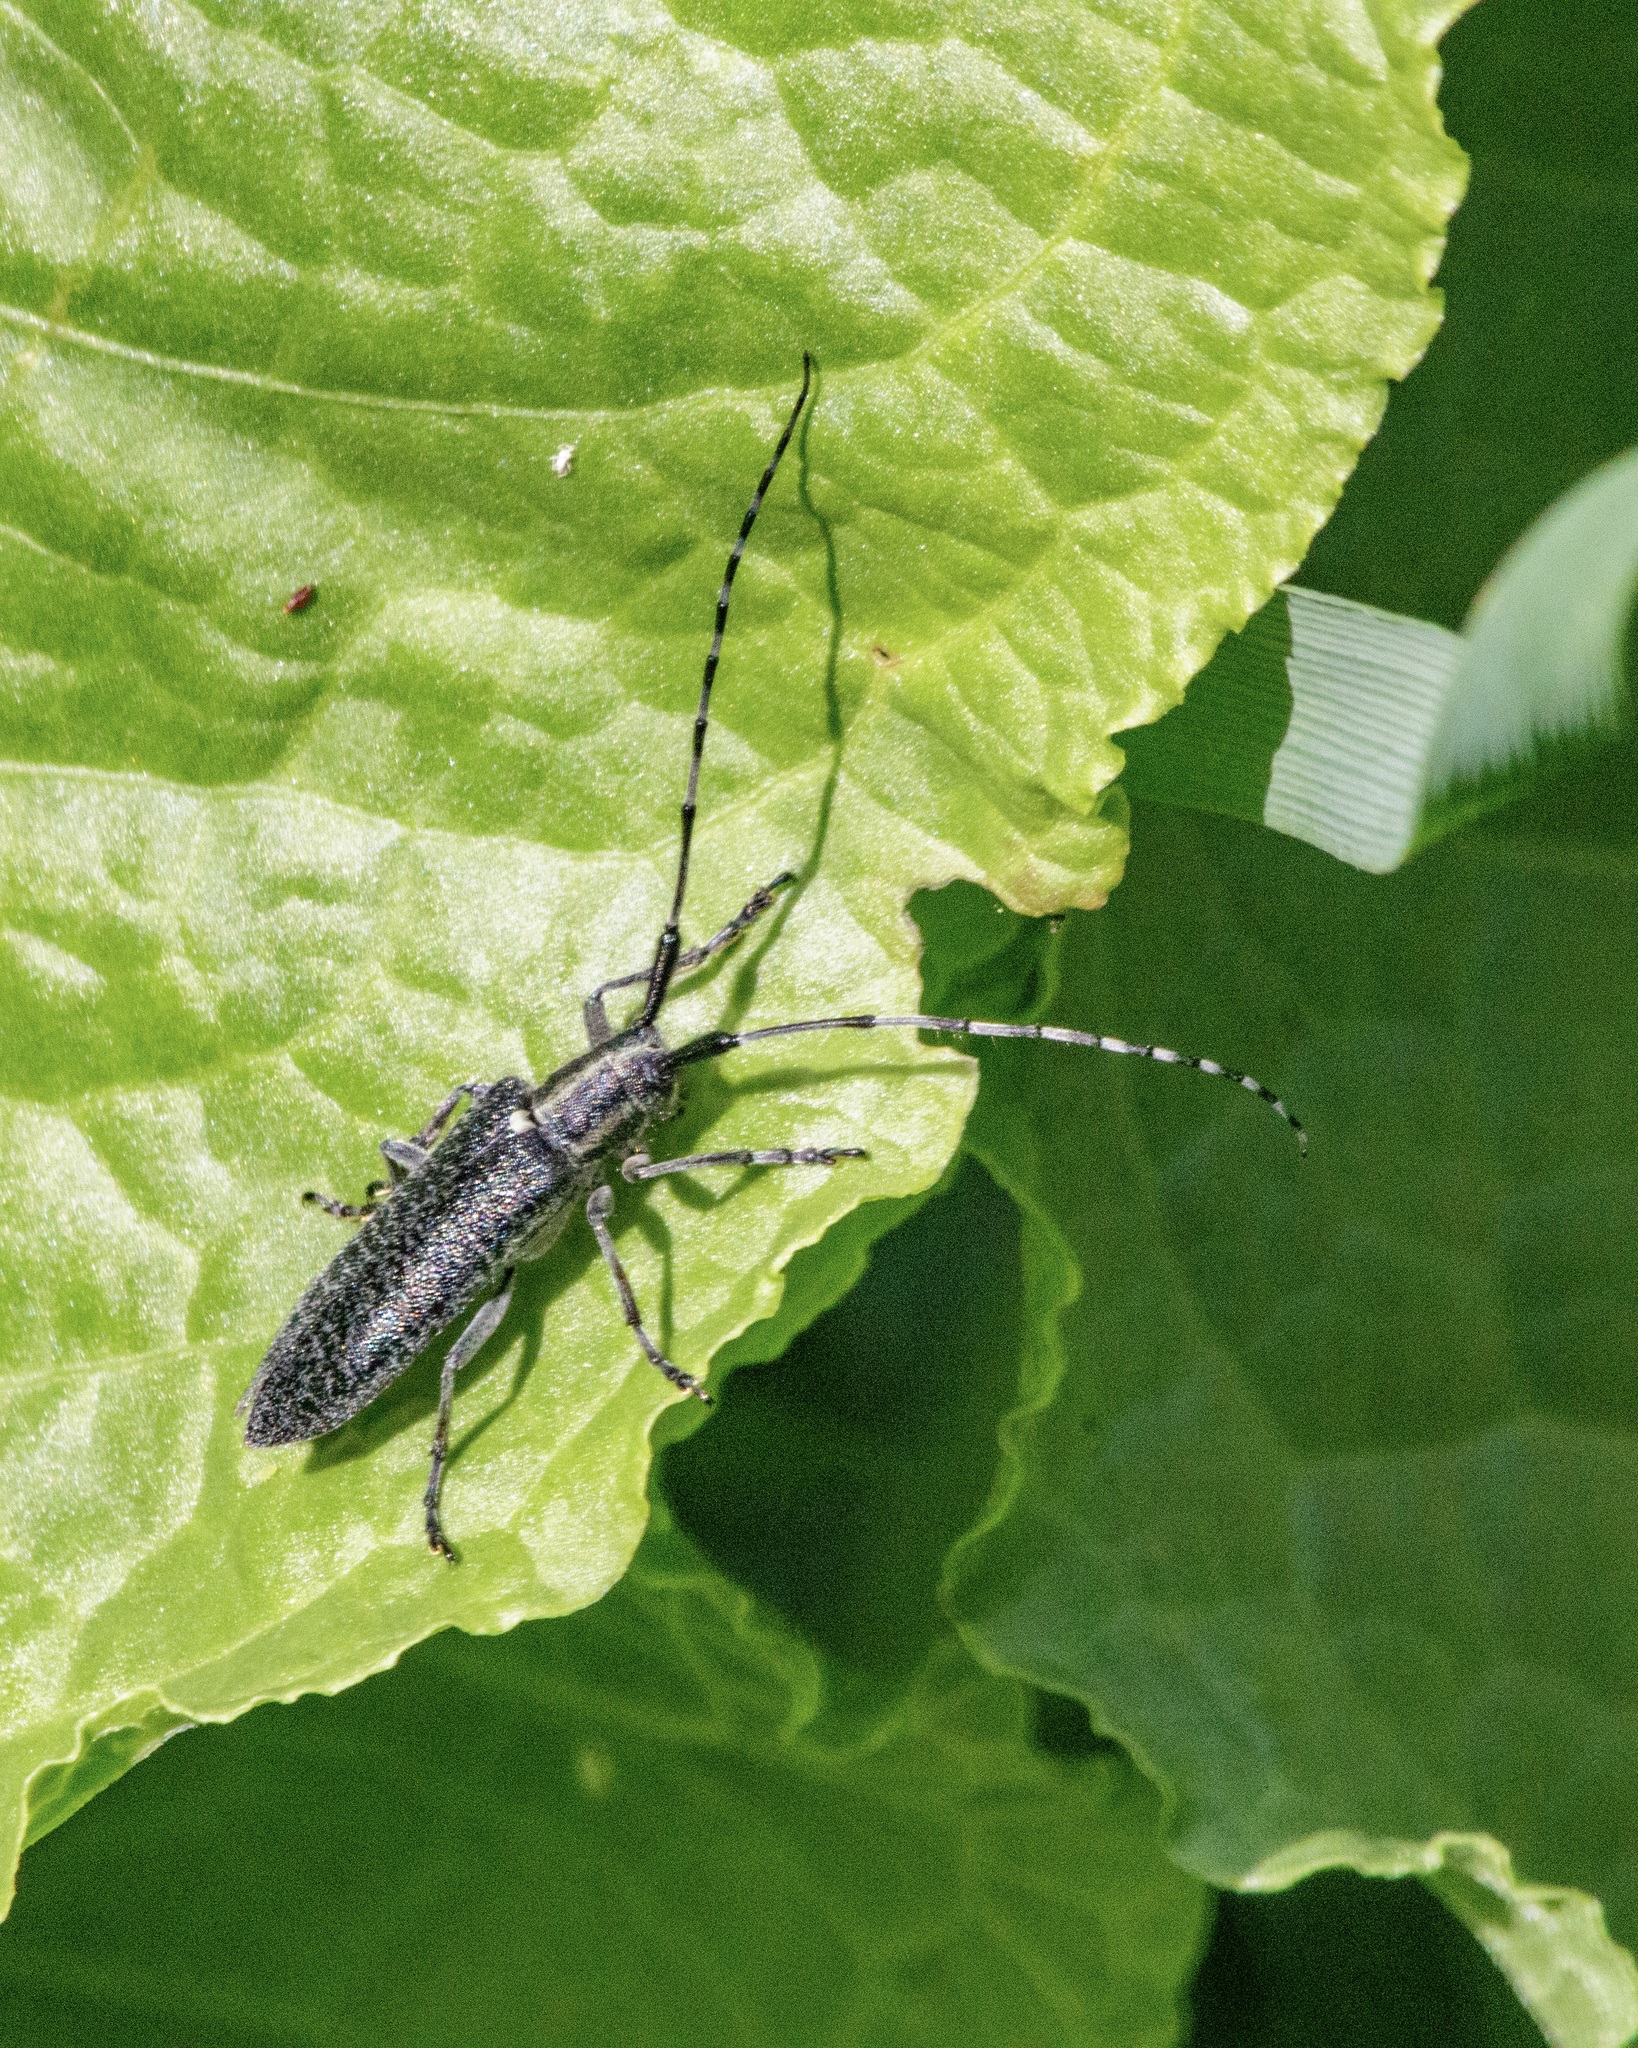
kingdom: Animalia
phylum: Arthropoda
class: Insecta
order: Coleoptera
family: Cerambycidae
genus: Agapanthia
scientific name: Agapanthia turanica
